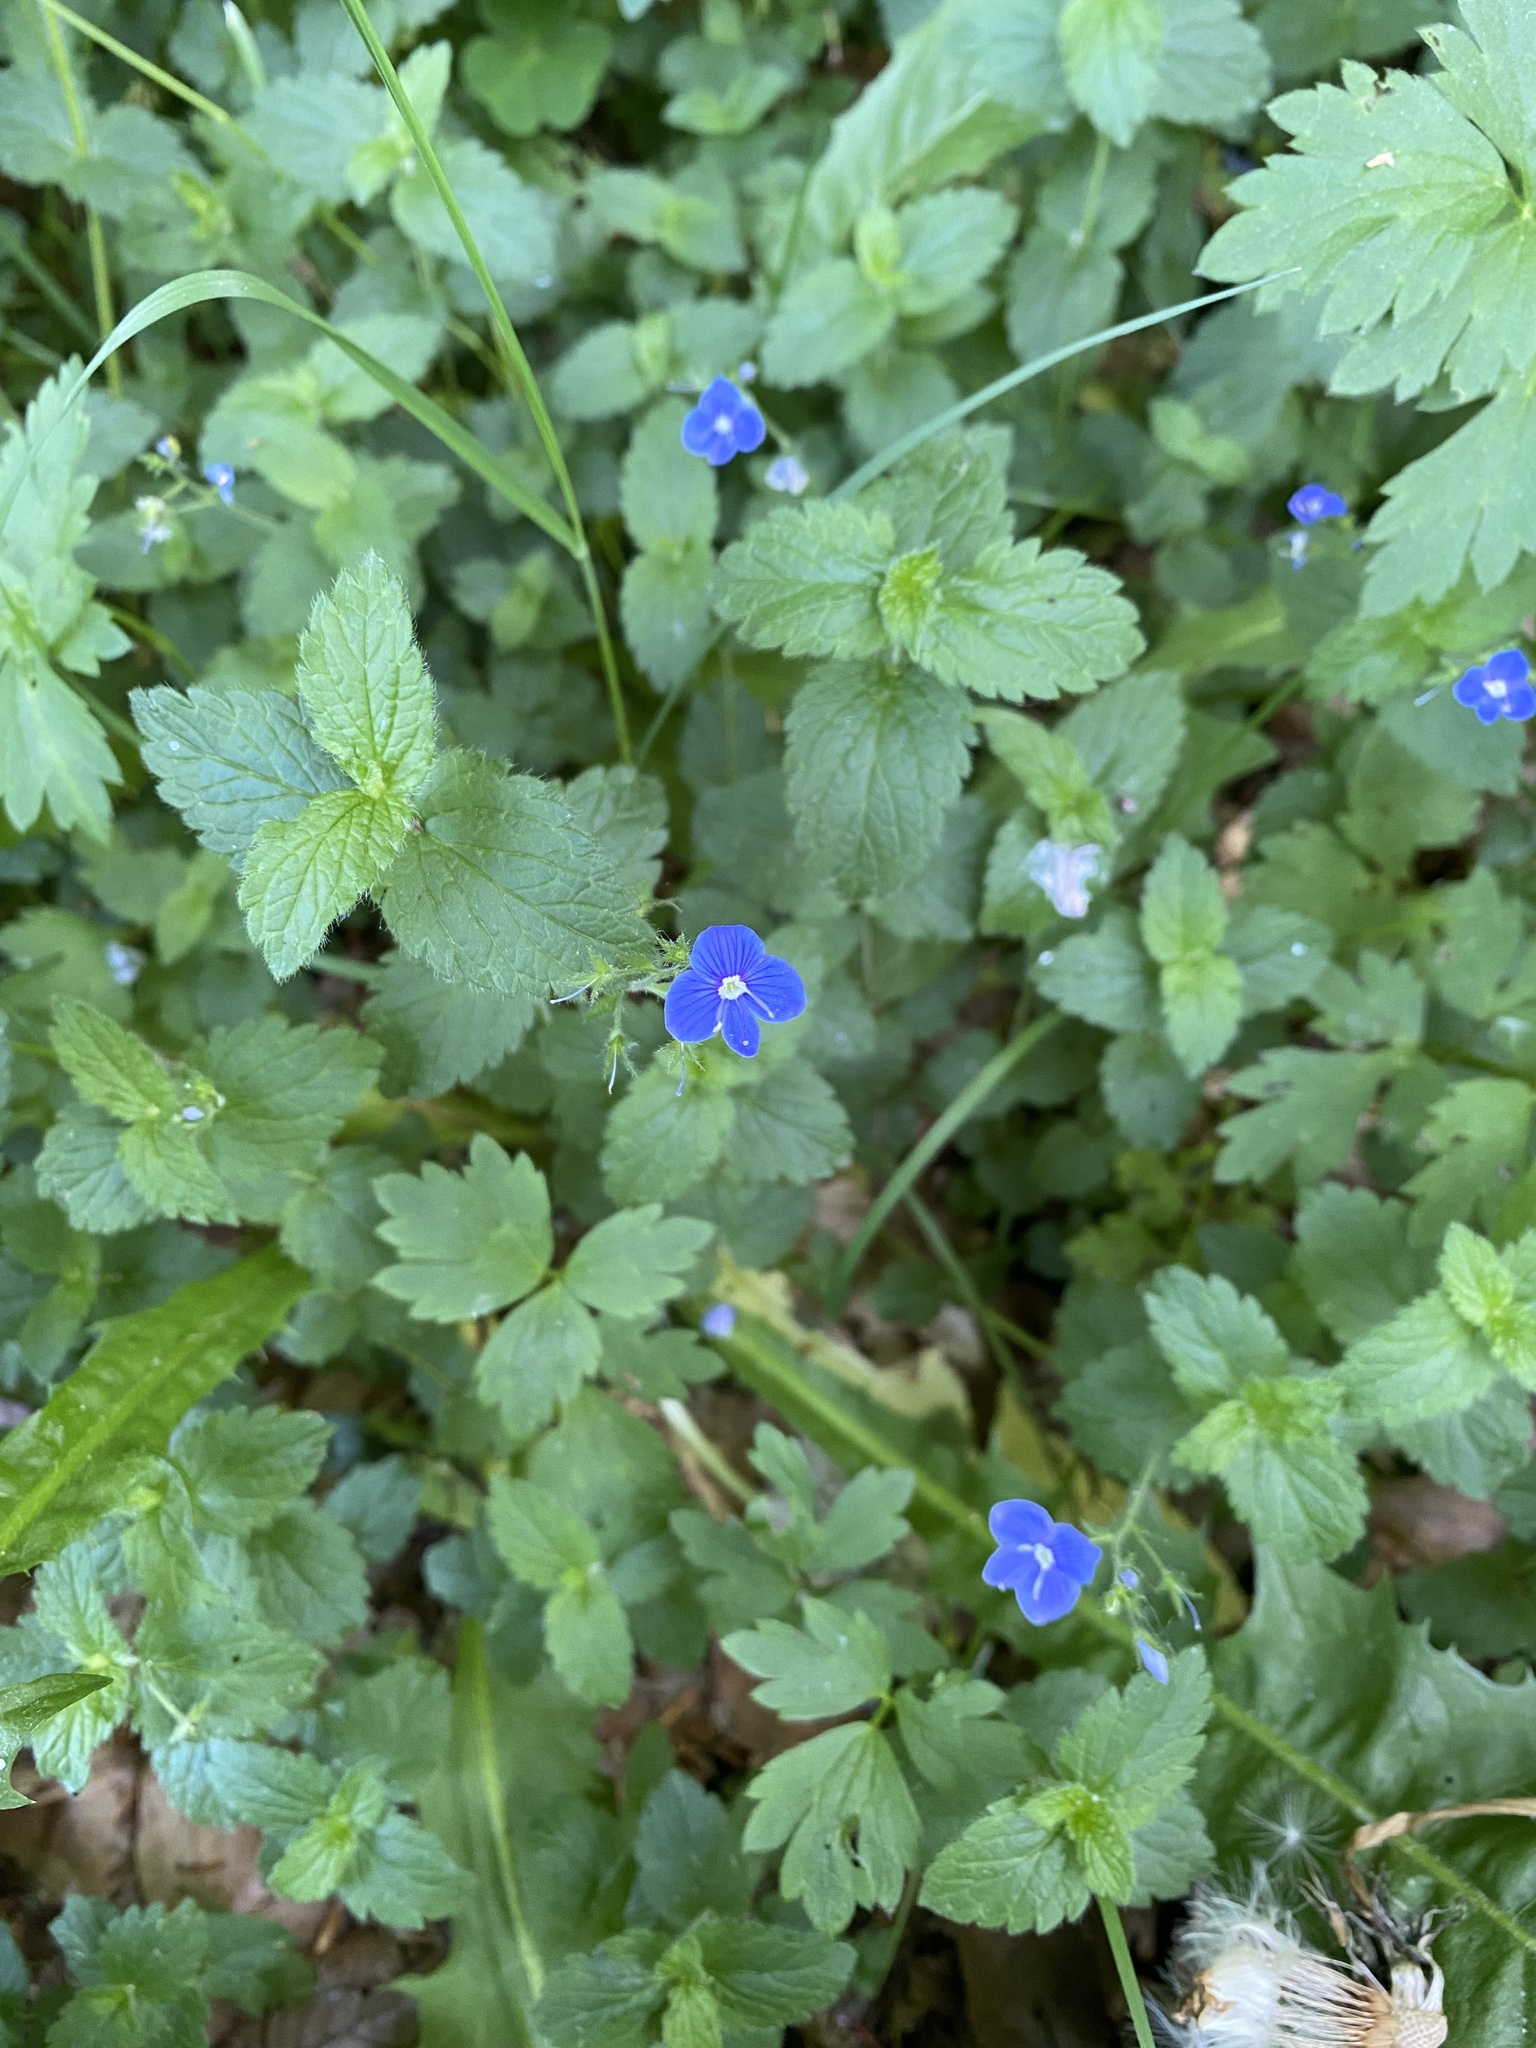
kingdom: Plantae
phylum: Tracheophyta
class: Magnoliopsida
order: Lamiales
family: Plantaginaceae
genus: Veronica
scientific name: Veronica chamaedrys
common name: Germander speedwell
